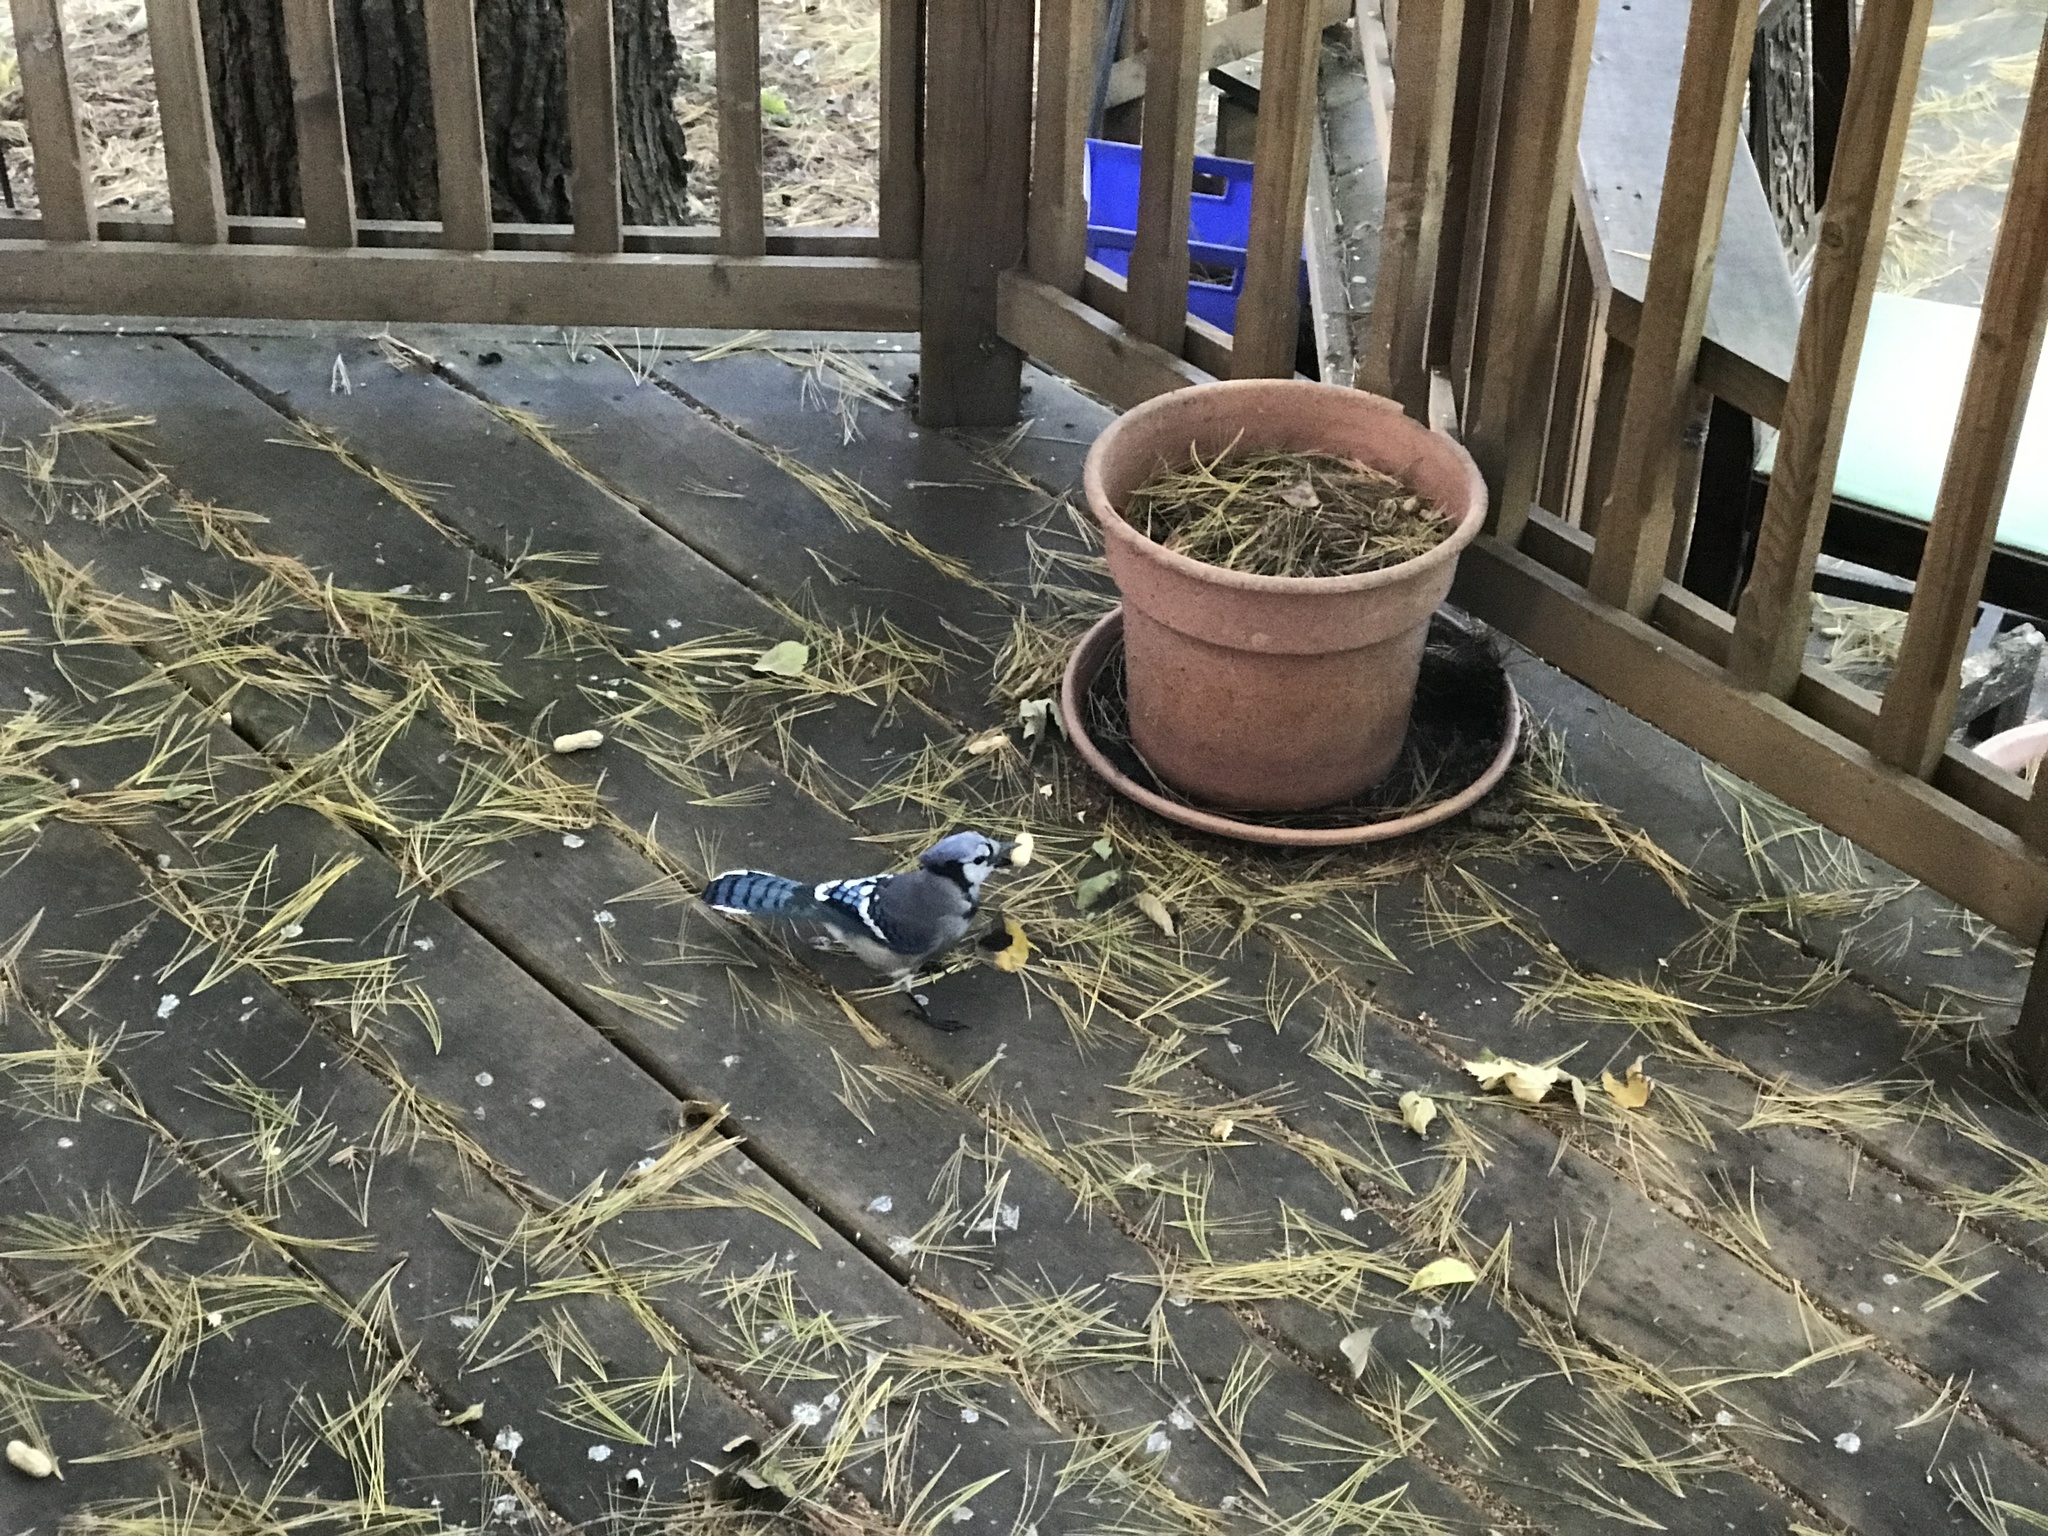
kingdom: Animalia
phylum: Chordata
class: Aves
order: Passeriformes
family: Corvidae
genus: Cyanocitta
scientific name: Cyanocitta cristata
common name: Blue jay
